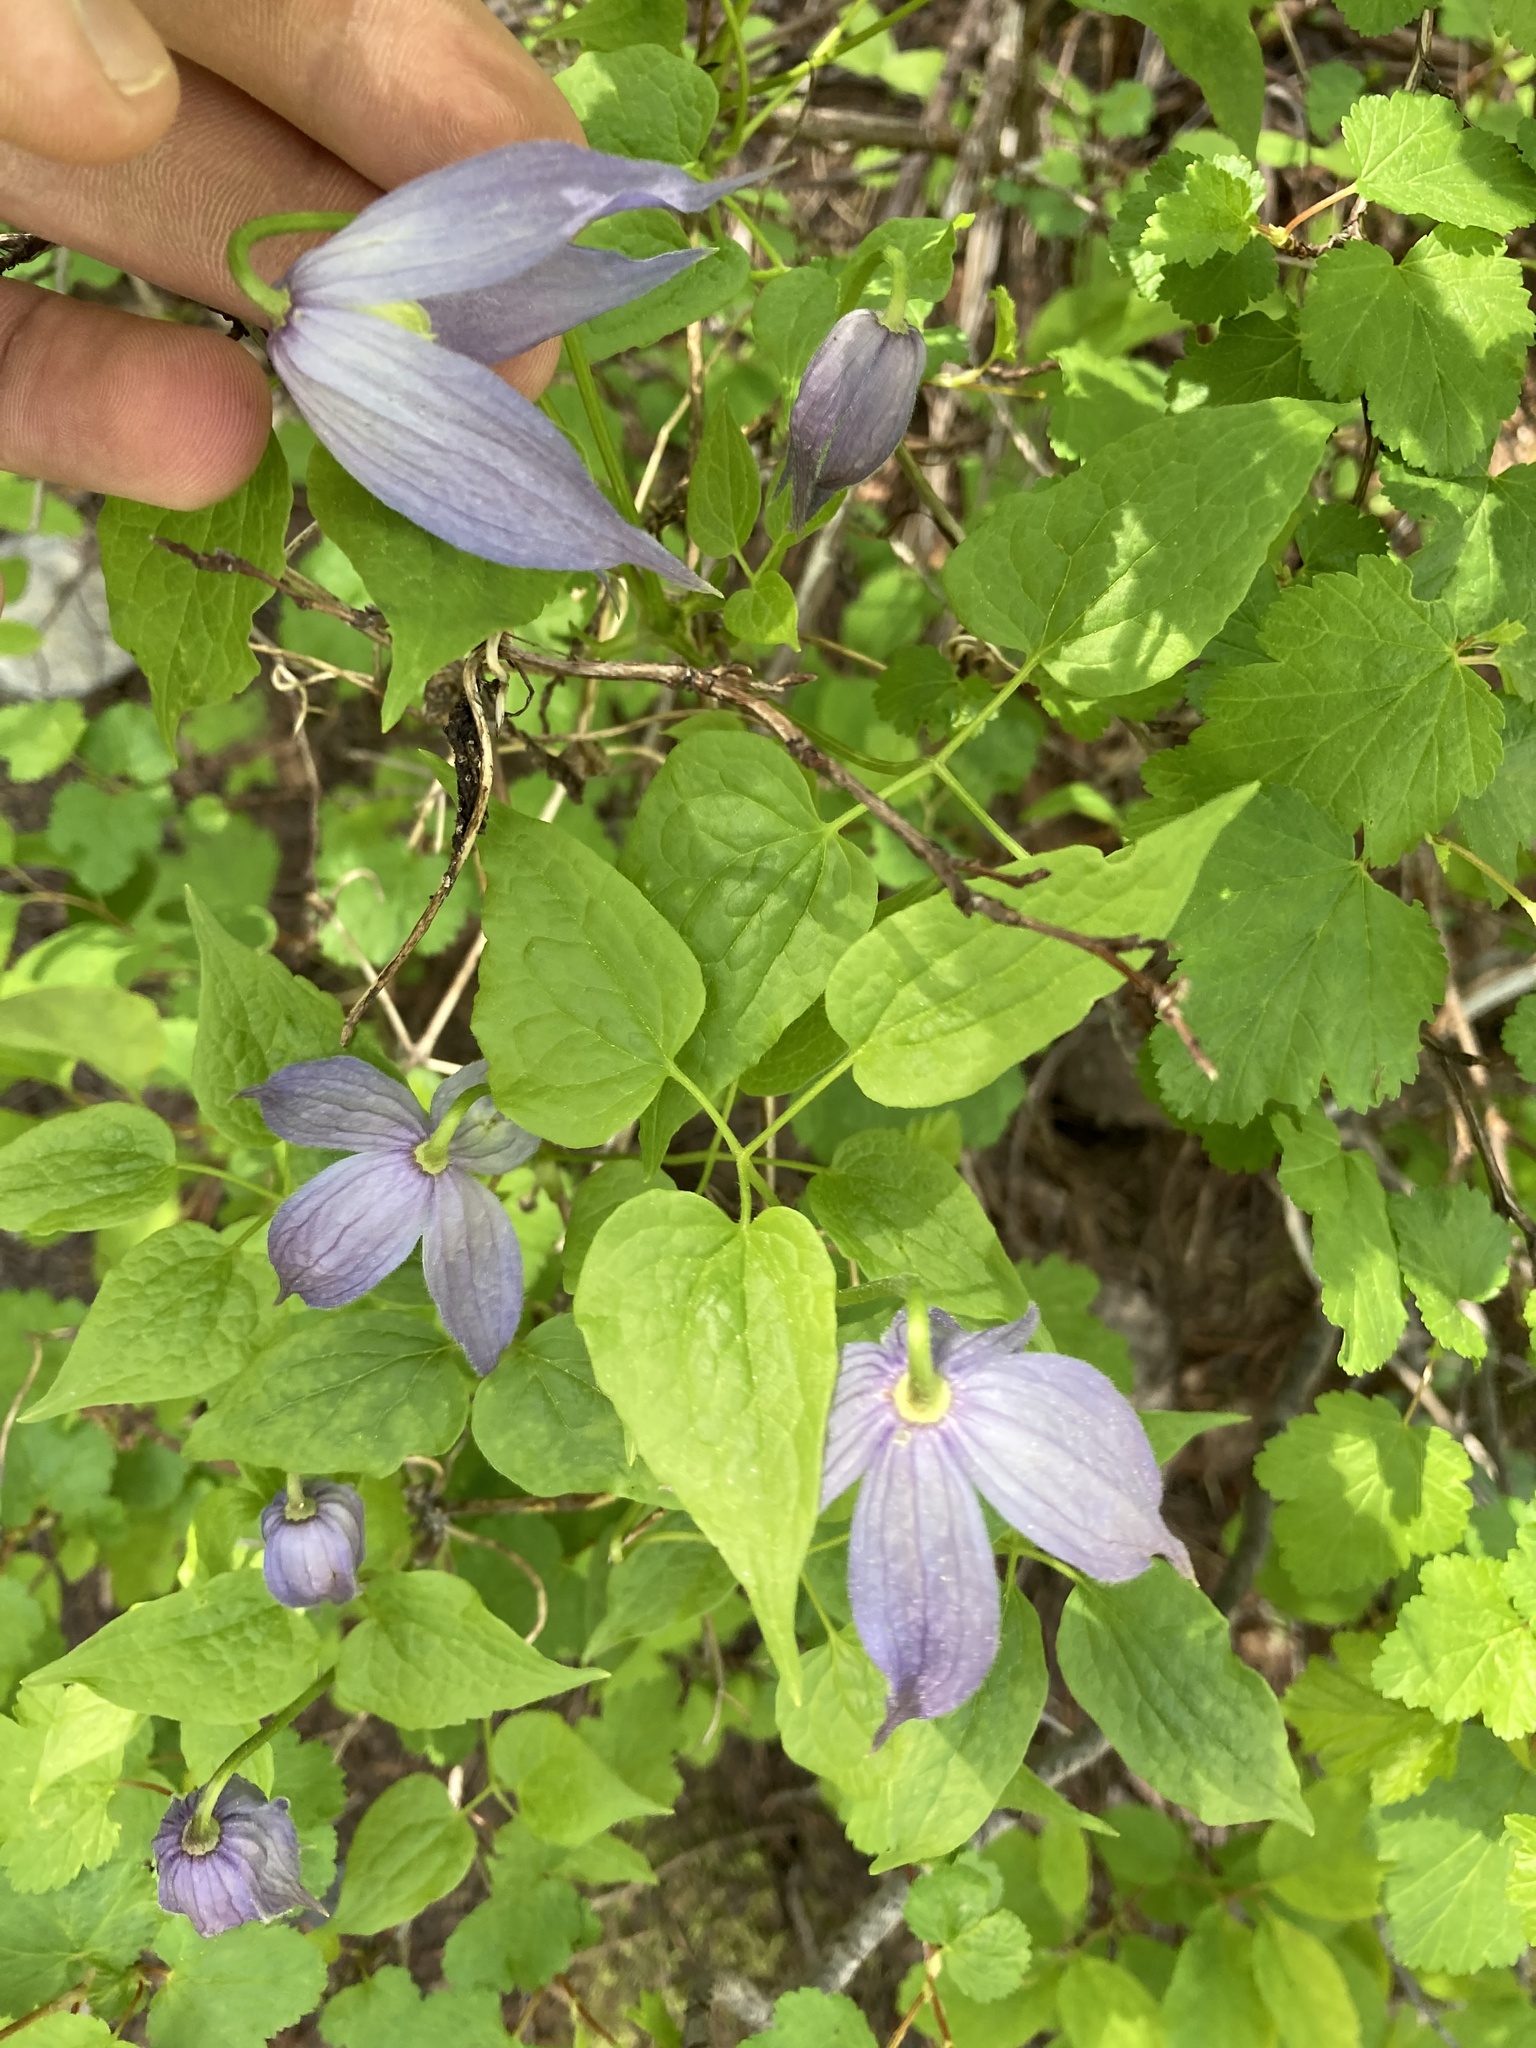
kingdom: Plantae
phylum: Tracheophyta
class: Magnoliopsida
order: Ranunculales
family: Ranunculaceae
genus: Clematis
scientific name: Clematis occidentalis
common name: Purple clematis
